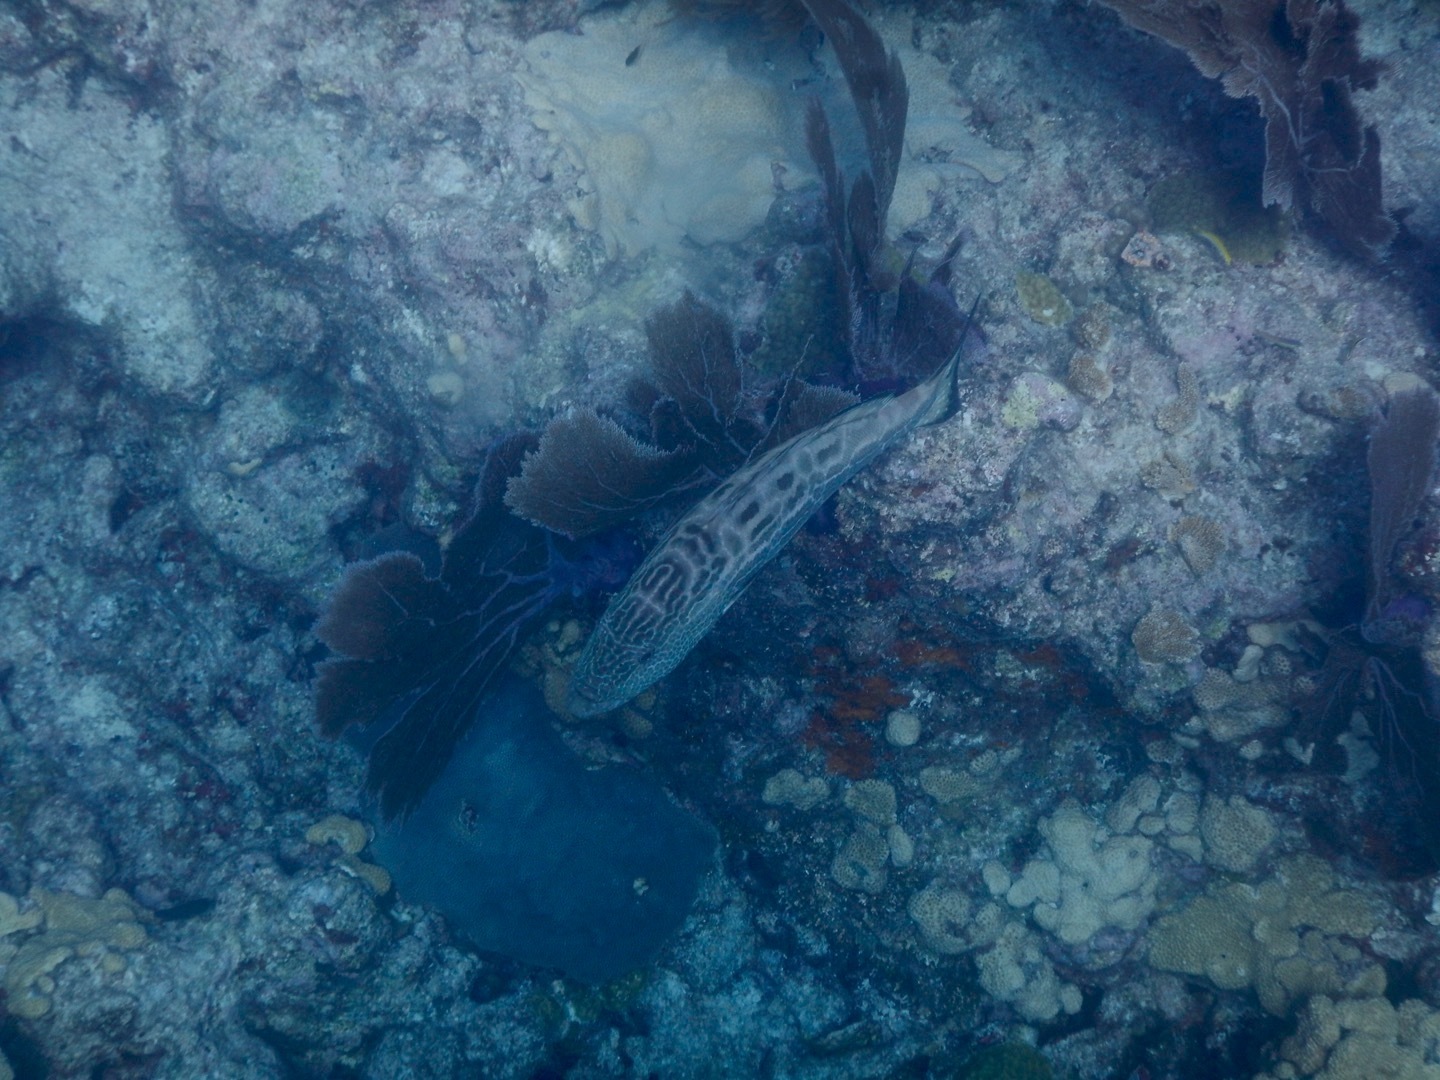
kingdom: Animalia
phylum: Chordata
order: Perciformes
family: Serranidae
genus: Mycteroperca
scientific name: Mycteroperca bonaci
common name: Black grouper
